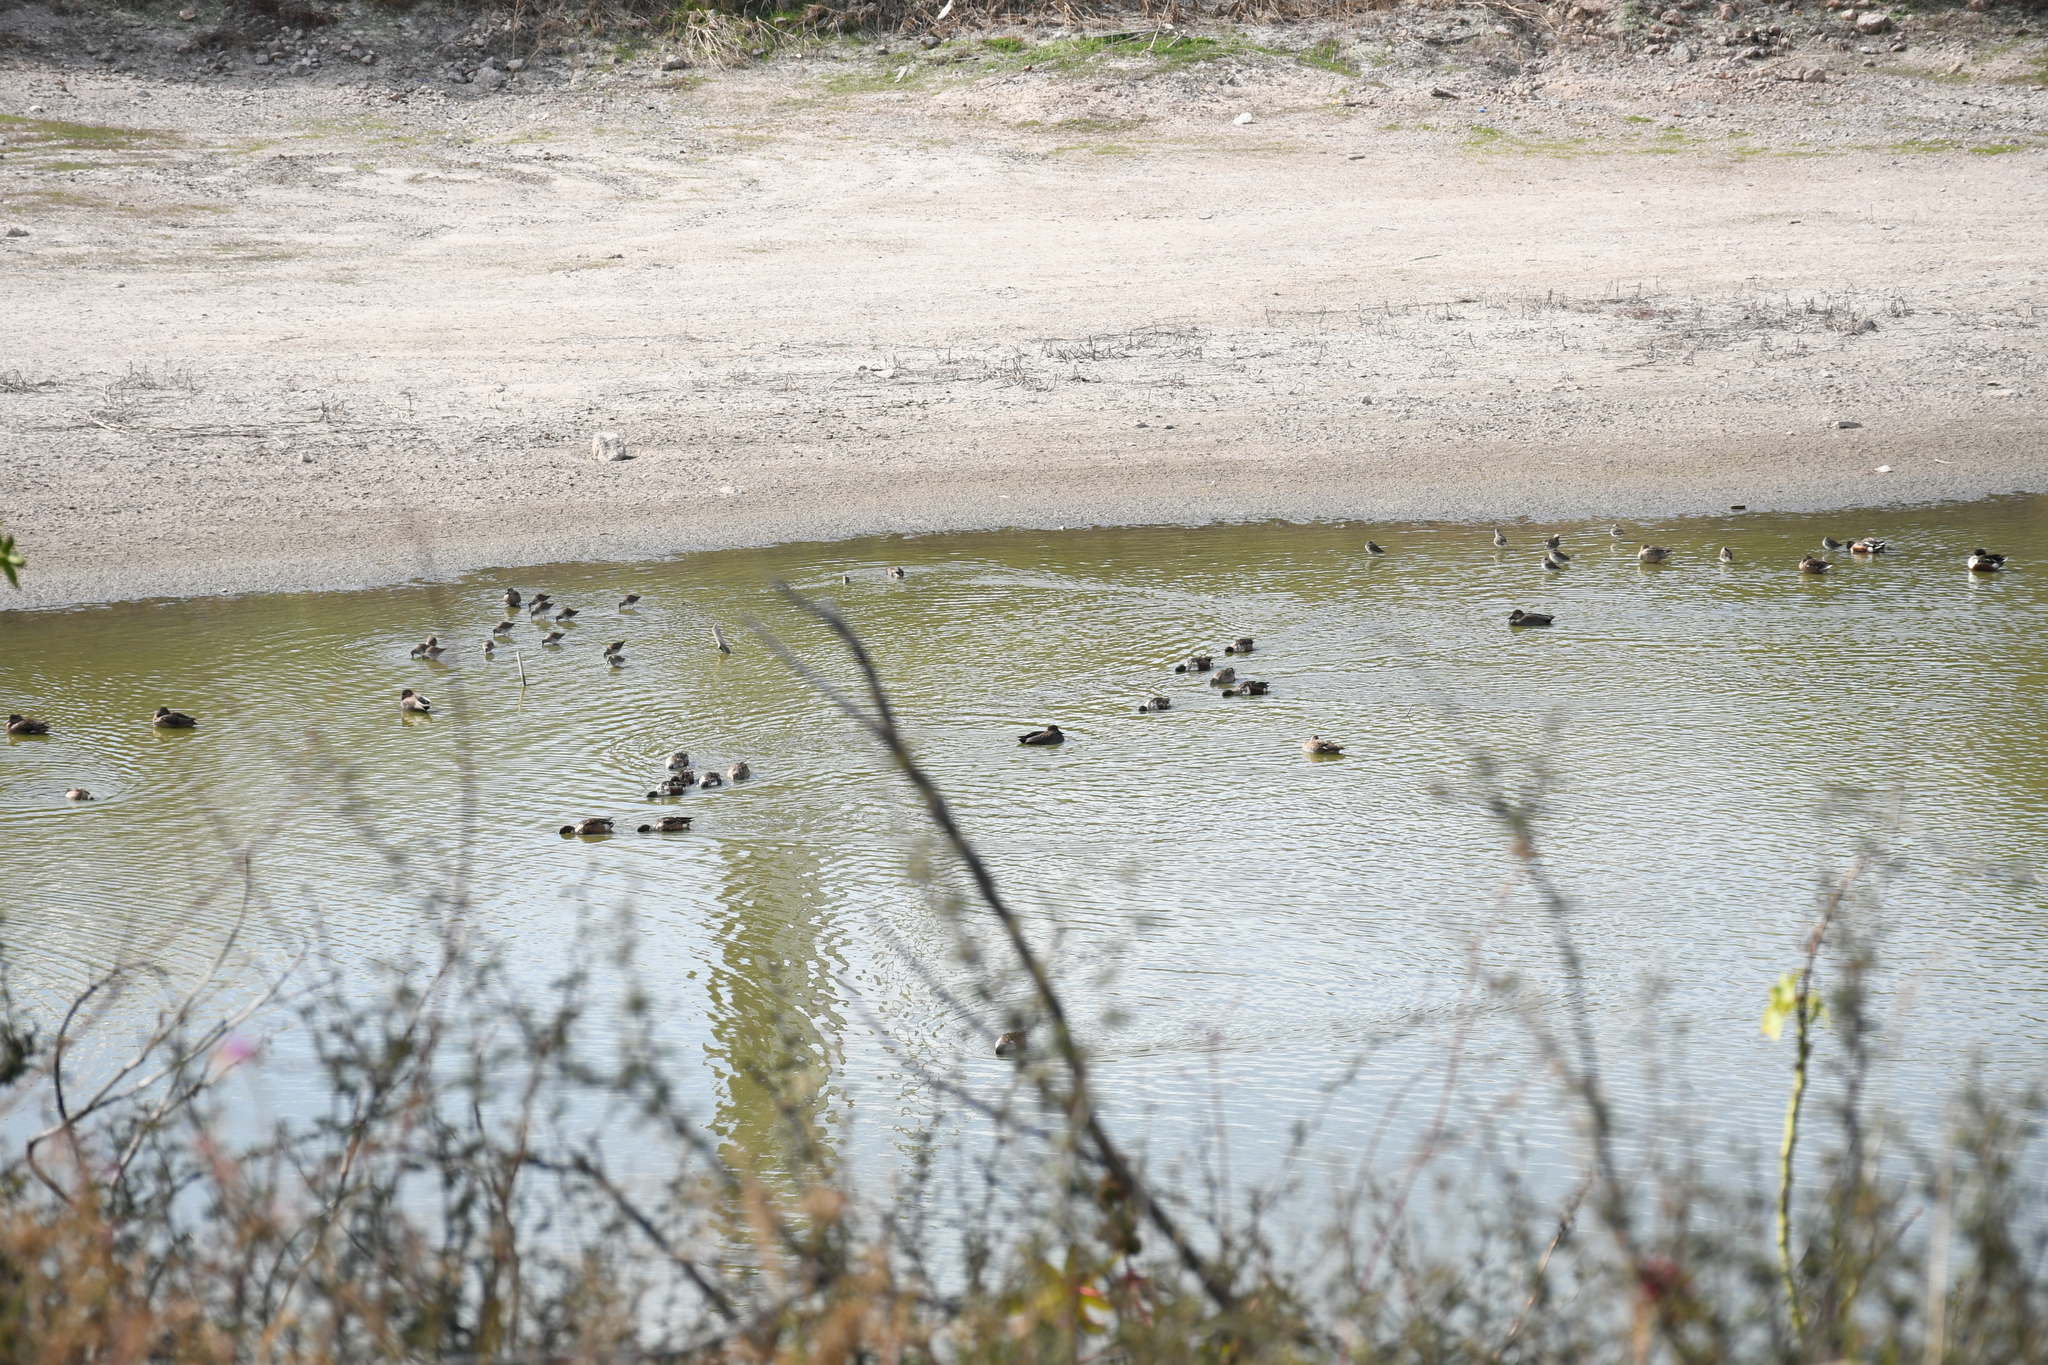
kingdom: Animalia
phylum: Chordata
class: Aves
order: Anseriformes
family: Anatidae
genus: Mareca
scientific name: Mareca strepera
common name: Gadwall
